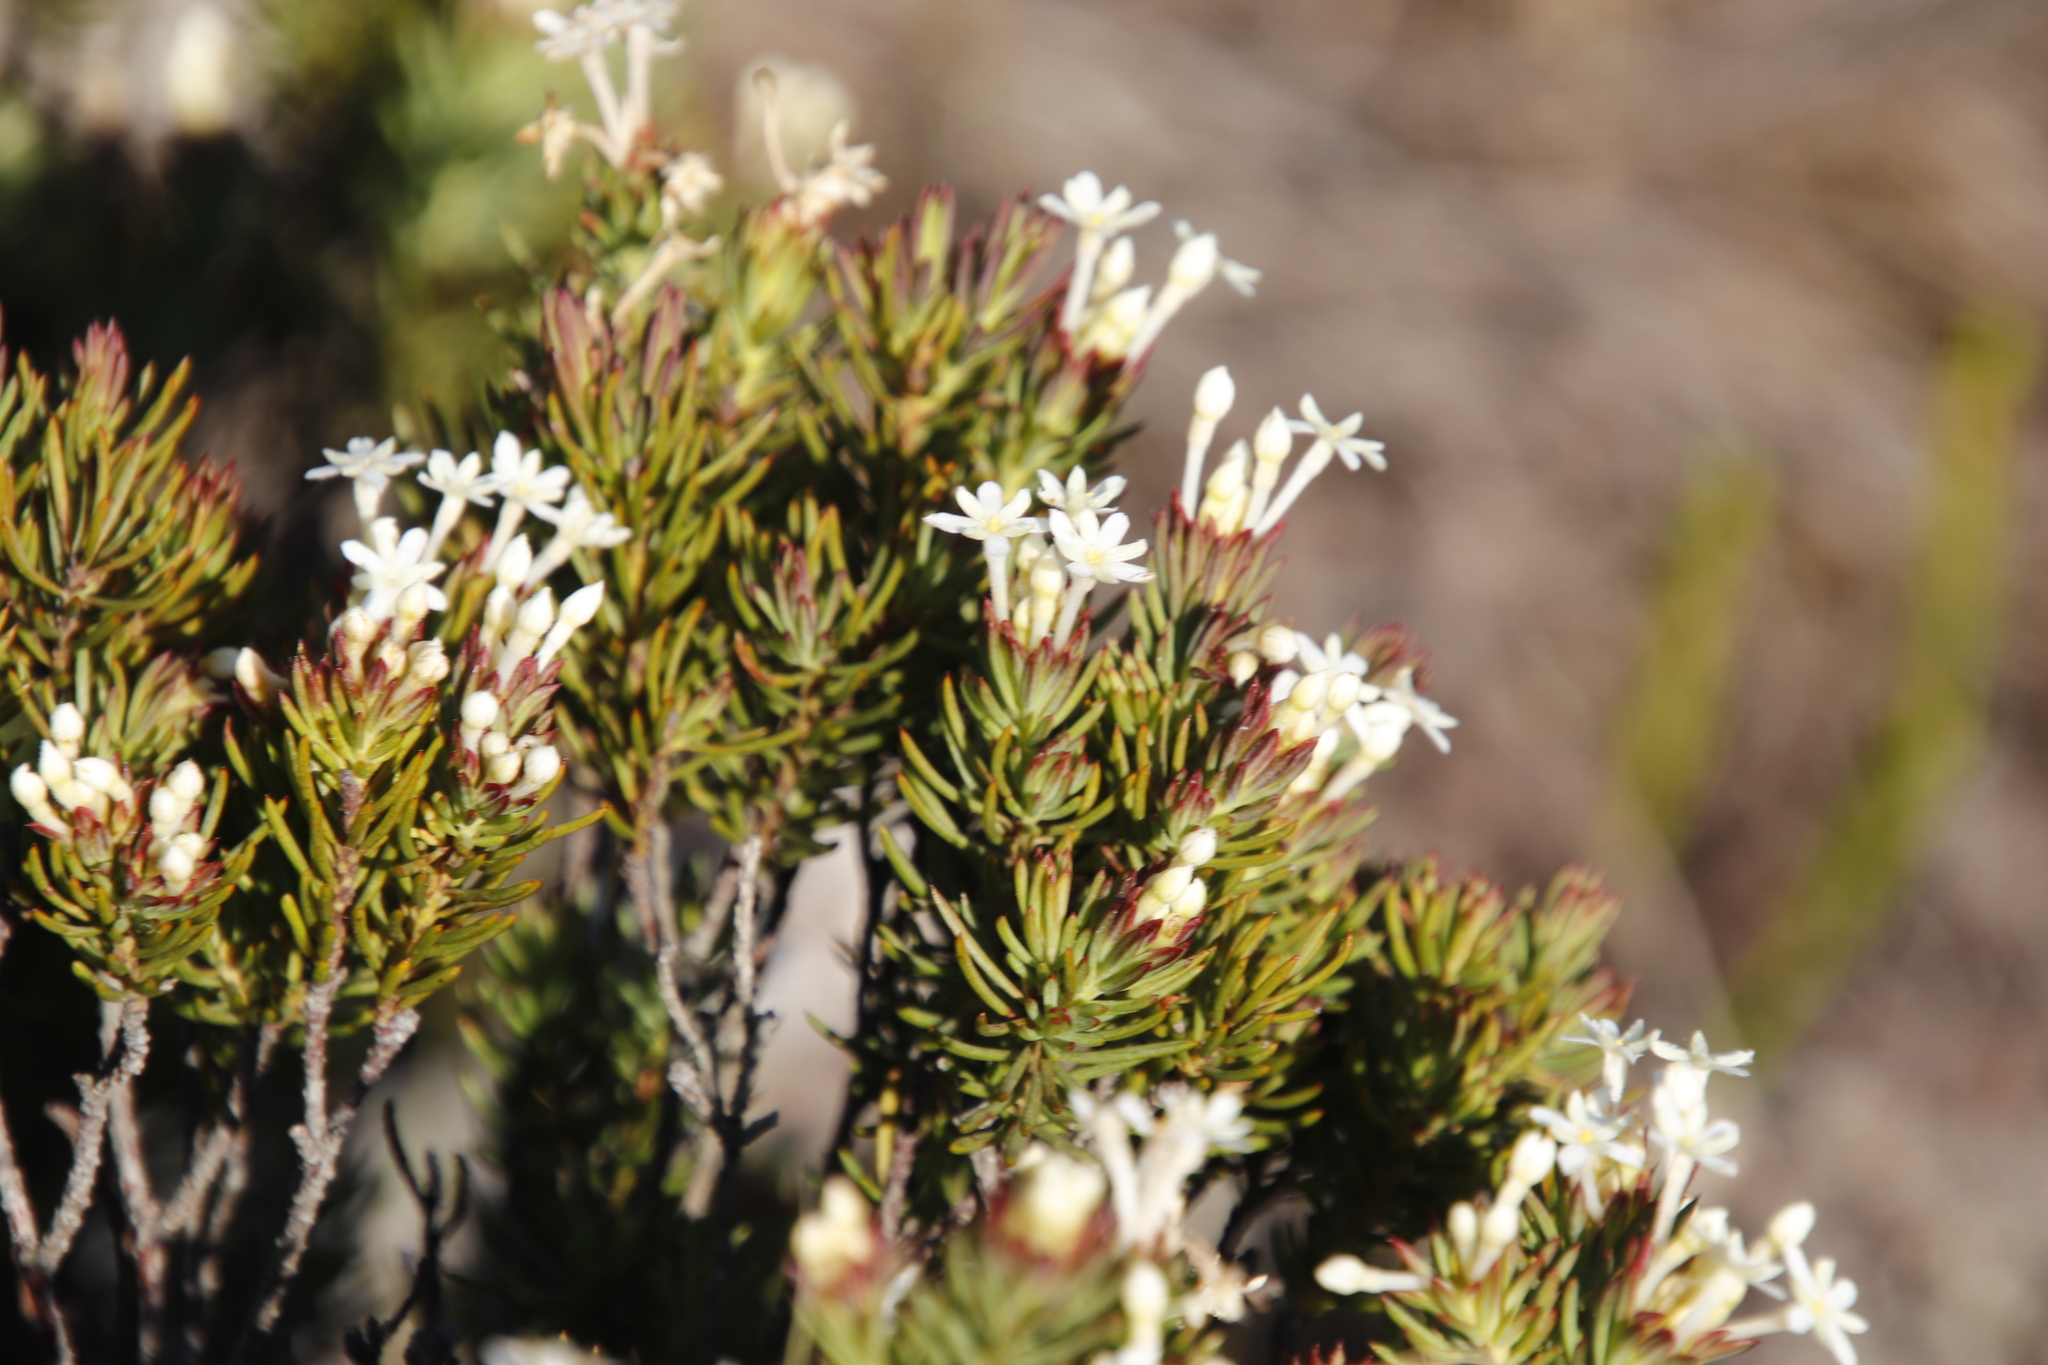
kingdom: Plantae
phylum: Tracheophyta
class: Magnoliopsida
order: Malvales
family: Thymelaeaceae
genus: Gnidia
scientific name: Gnidia pinifolia
